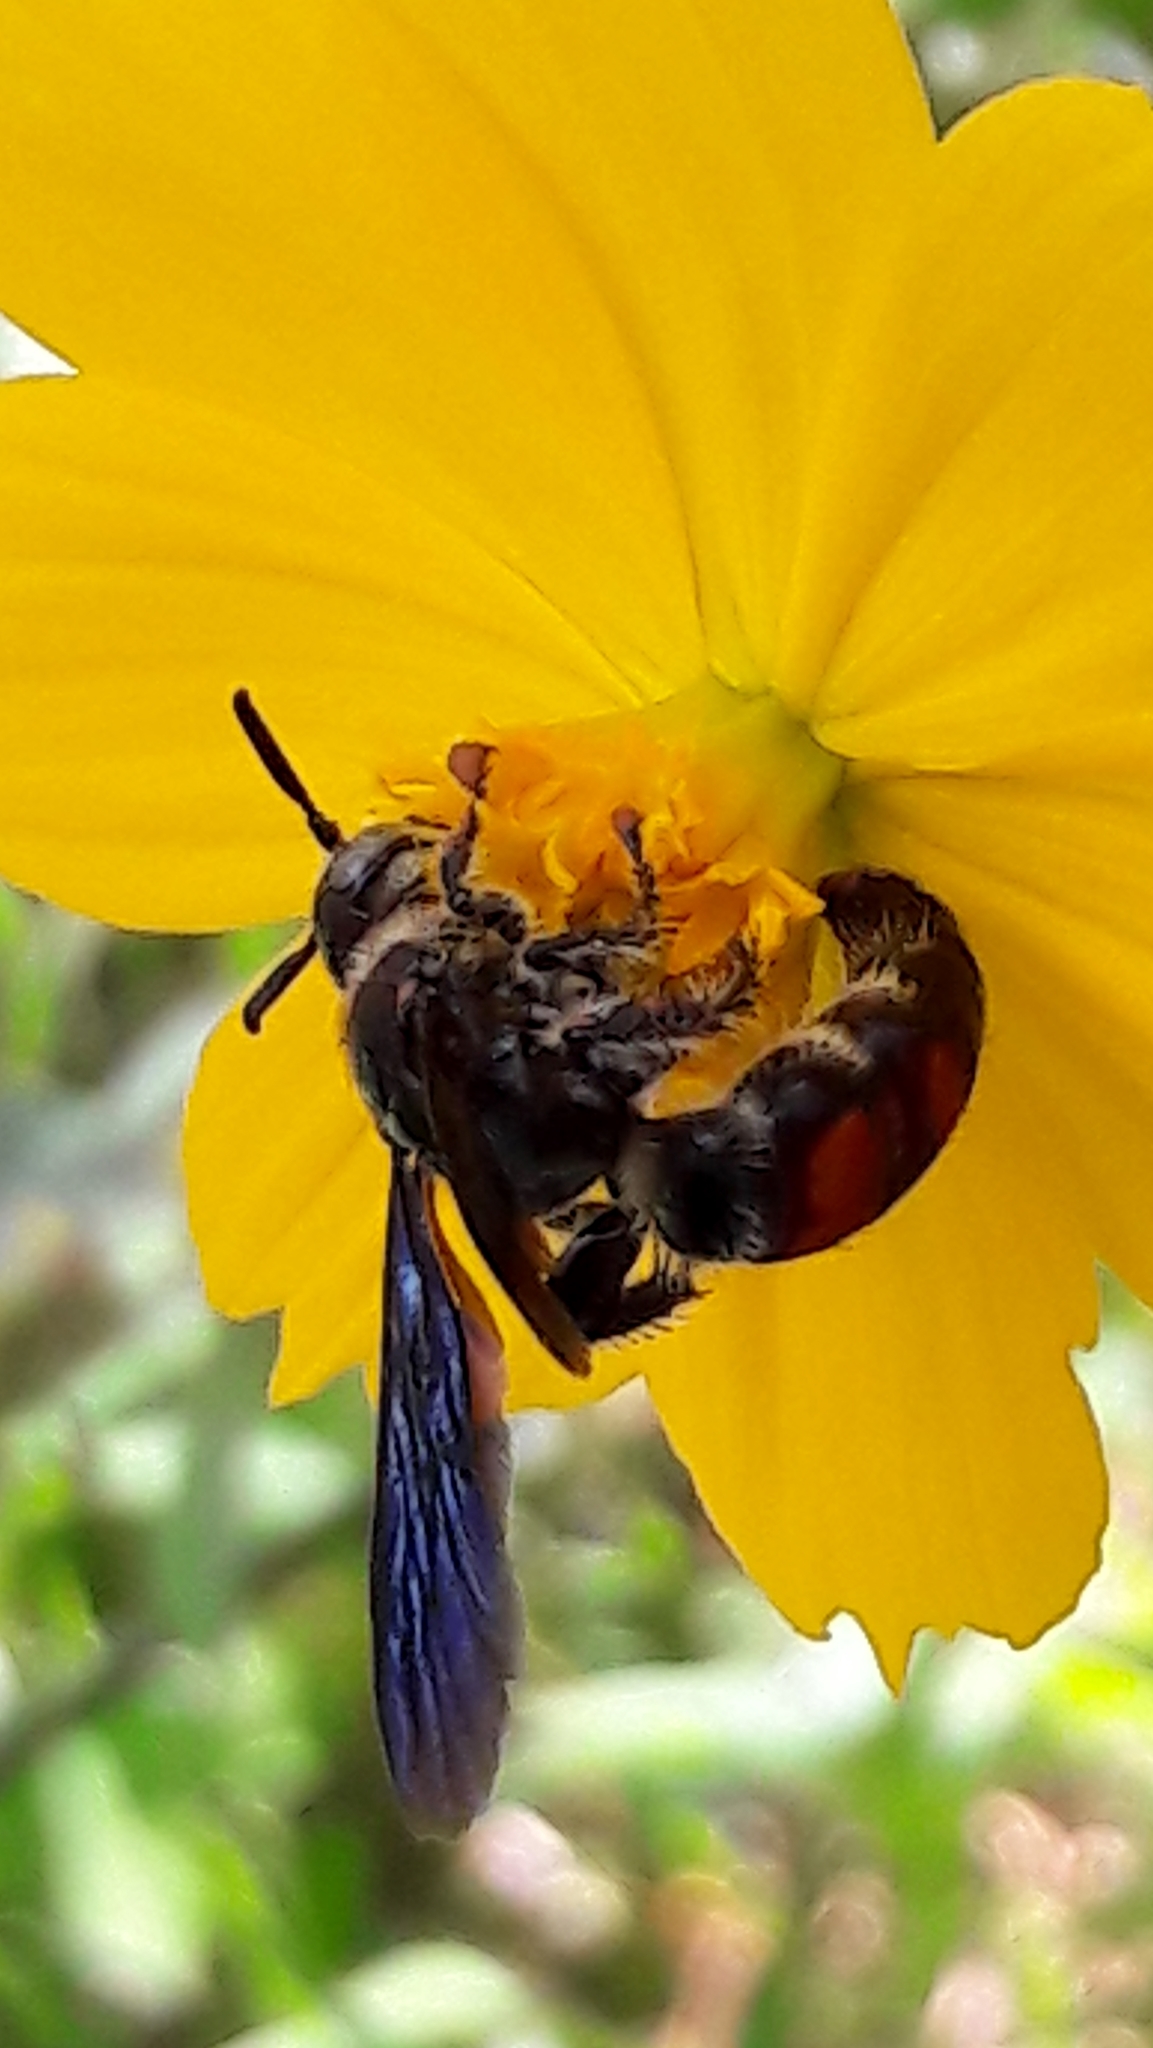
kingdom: Animalia
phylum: Arthropoda
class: Insecta
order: Hymenoptera
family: Scoliidae
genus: Dielis
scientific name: Dielis dorsata
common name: Scoliid wasp
